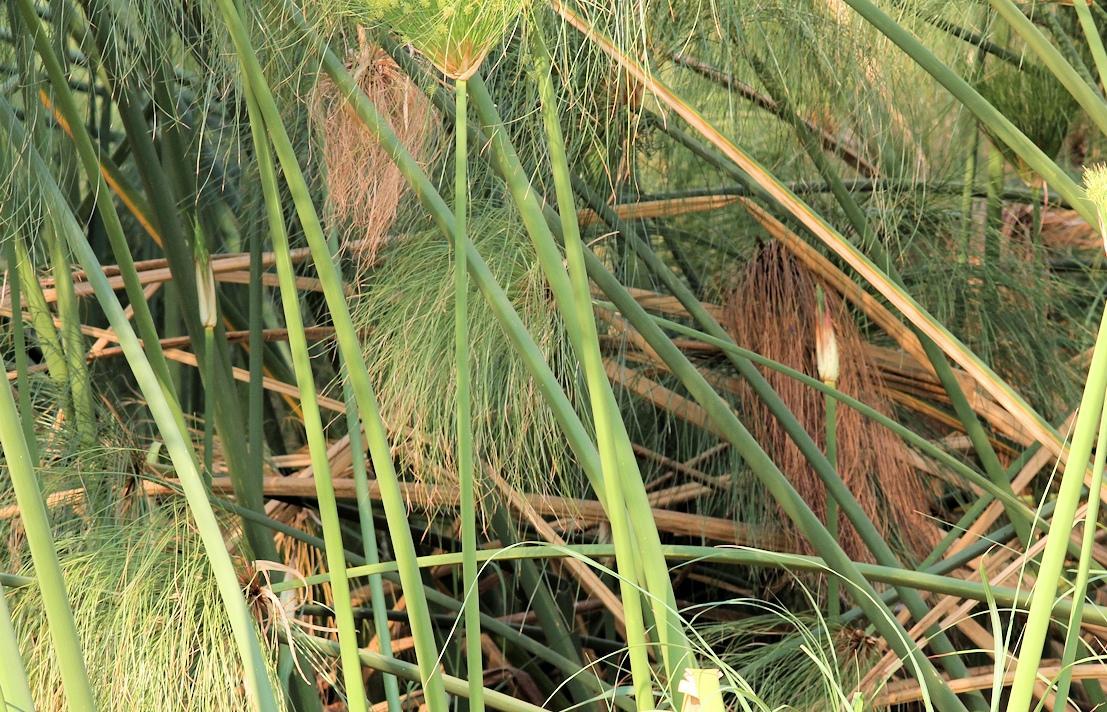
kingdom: Plantae
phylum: Tracheophyta
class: Liliopsida
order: Poales
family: Cyperaceae
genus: Cyperus
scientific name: Cyperus papyrus
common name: Papyrus
